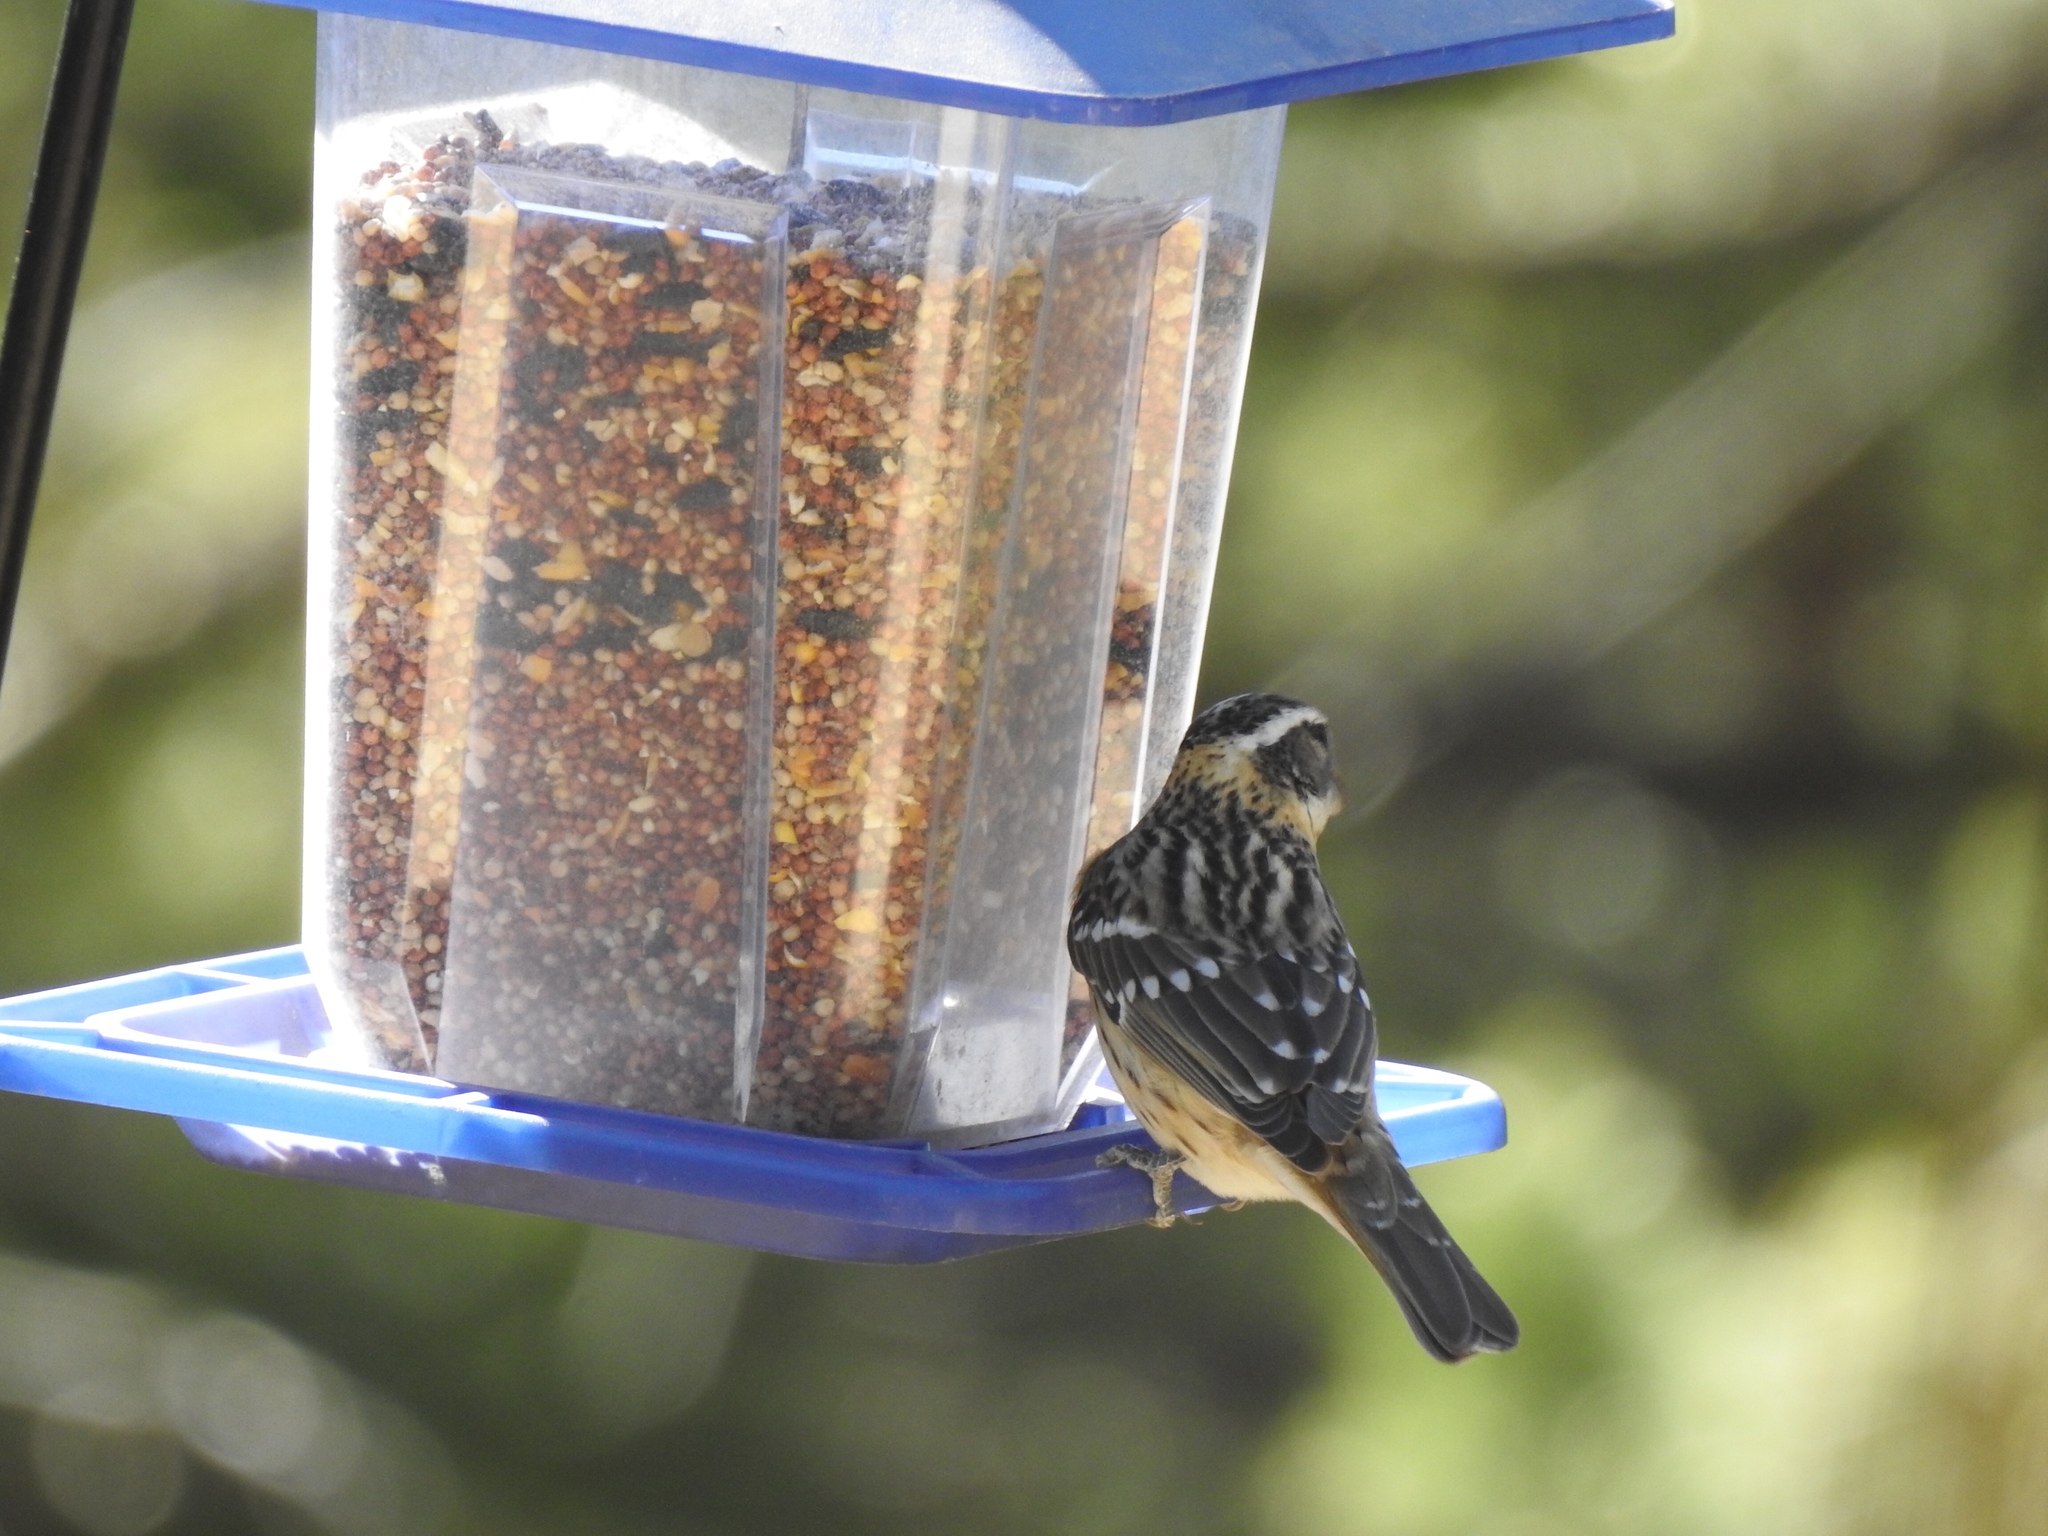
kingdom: Animalia
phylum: Chordata
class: Aves
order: Passeriformes
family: Cardinalidae
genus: Pheucticus
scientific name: Pheucticus melanocephalus
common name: Black-headed grosbeak
